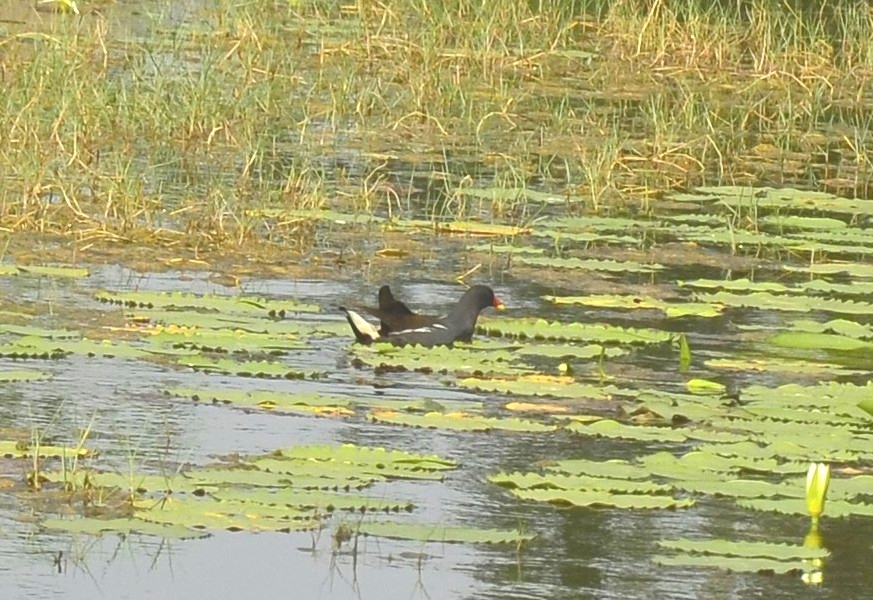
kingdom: Animalia
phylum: Chordata
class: Aves
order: Gruiformes
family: Rallidae
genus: Gallinula
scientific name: Gallinula chloropus
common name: Common moorhen
